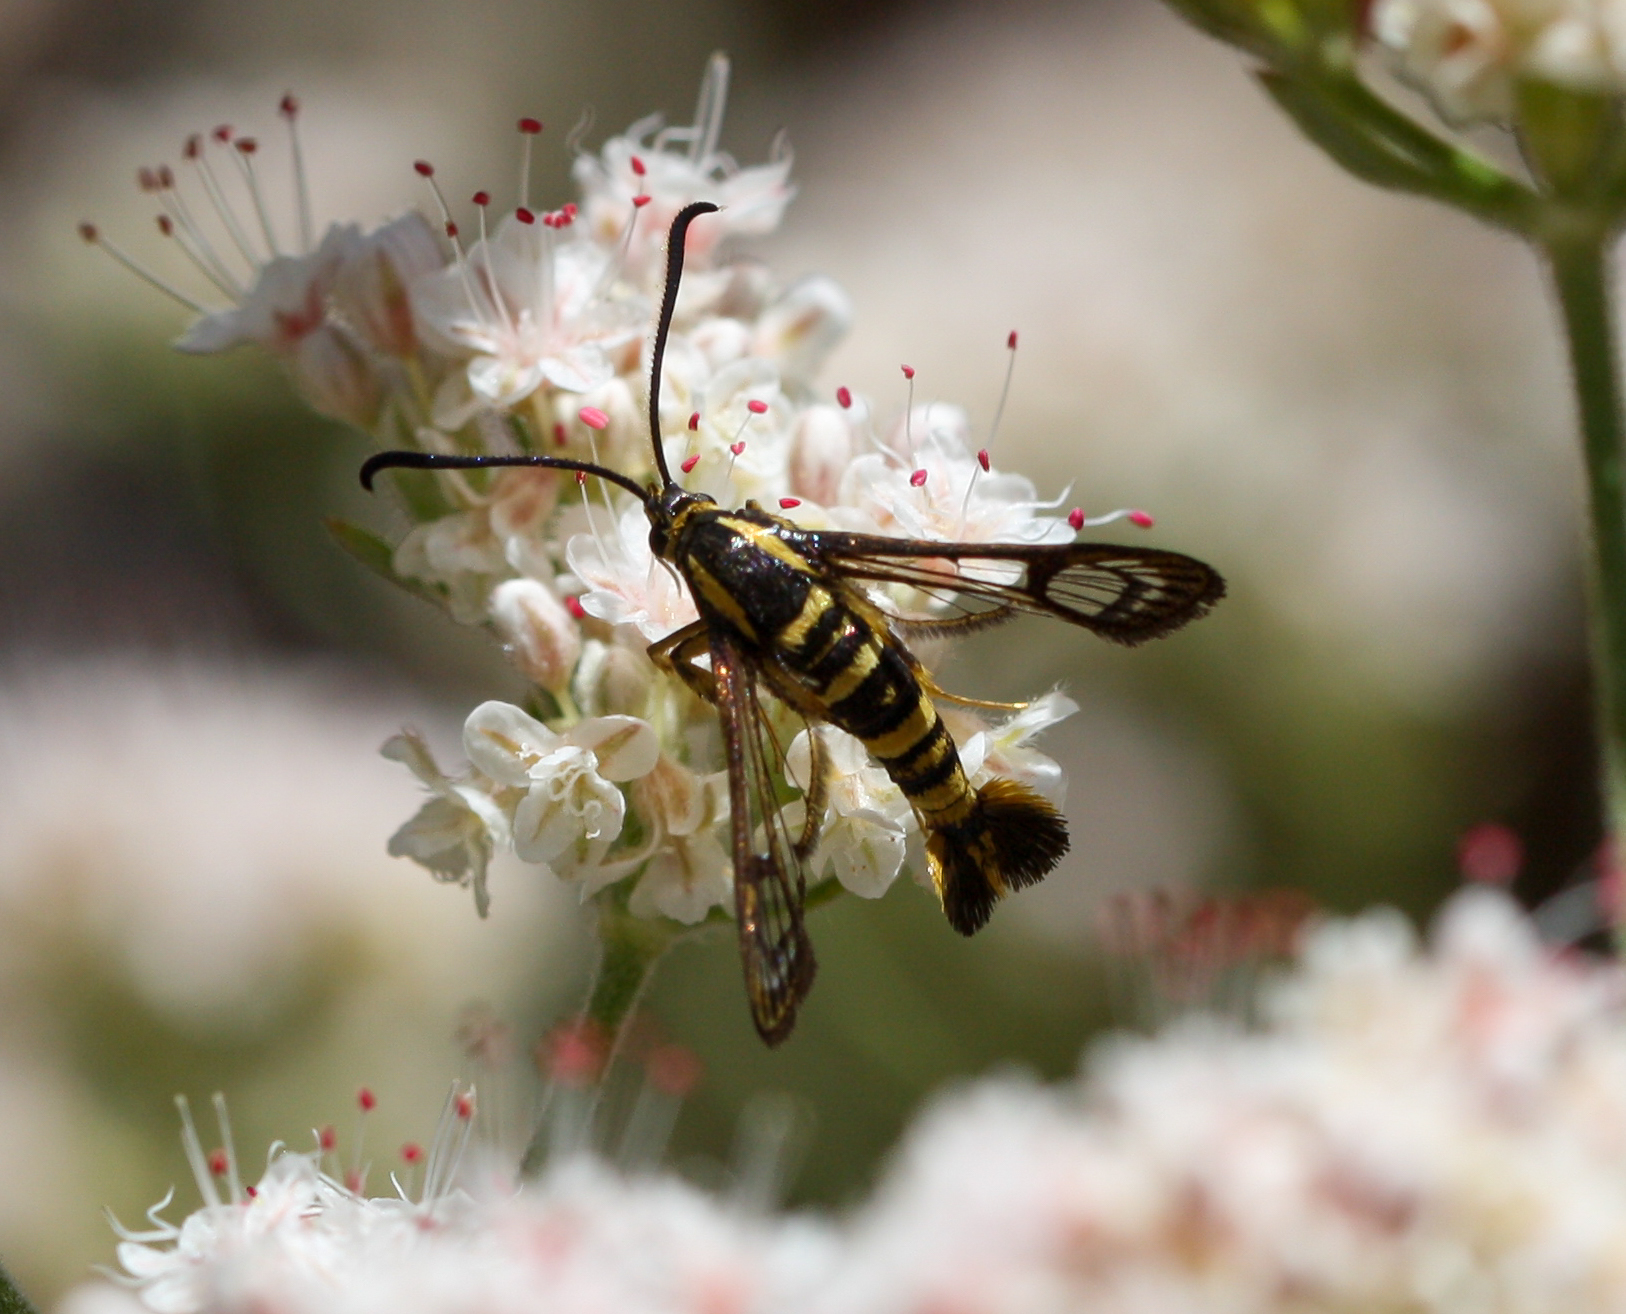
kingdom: Animalia
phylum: Arthropoda
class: Insecta
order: Lepidoptera
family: Sesiidae
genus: Synanthedon
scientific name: Synanthedon resplendens
